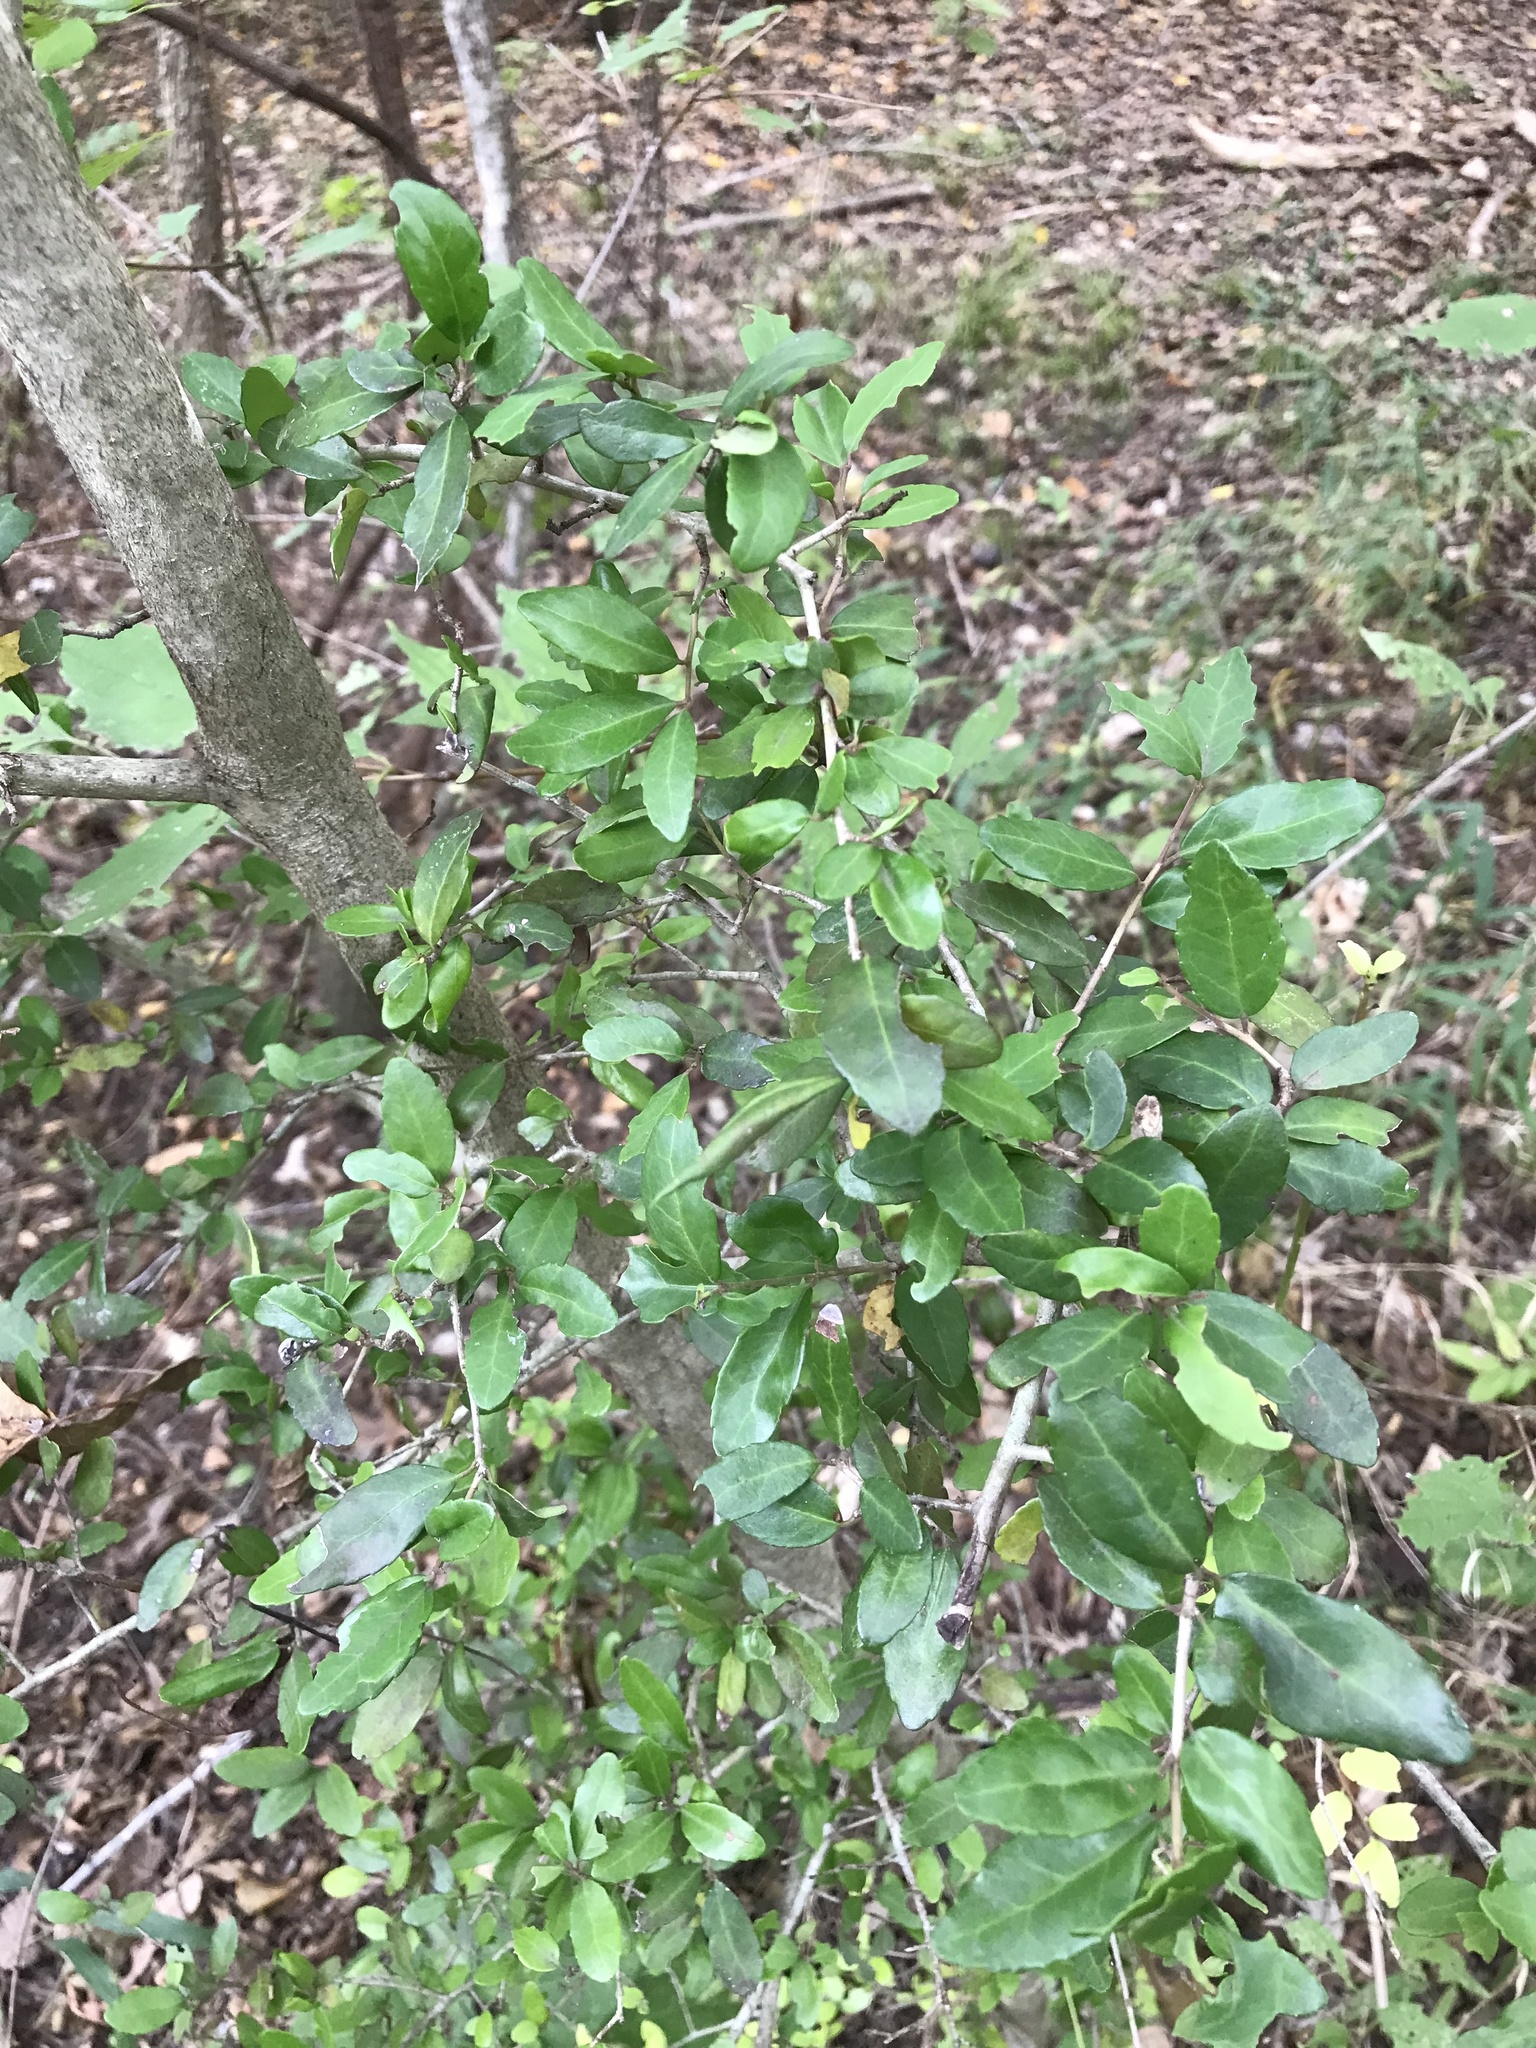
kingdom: Plantae
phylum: Tracheophyta
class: Magnoliopsida
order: Aquifoliales
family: Aquifoliaceae
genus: Ilex
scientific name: Ilex vomitoria
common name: Yaupon holly
